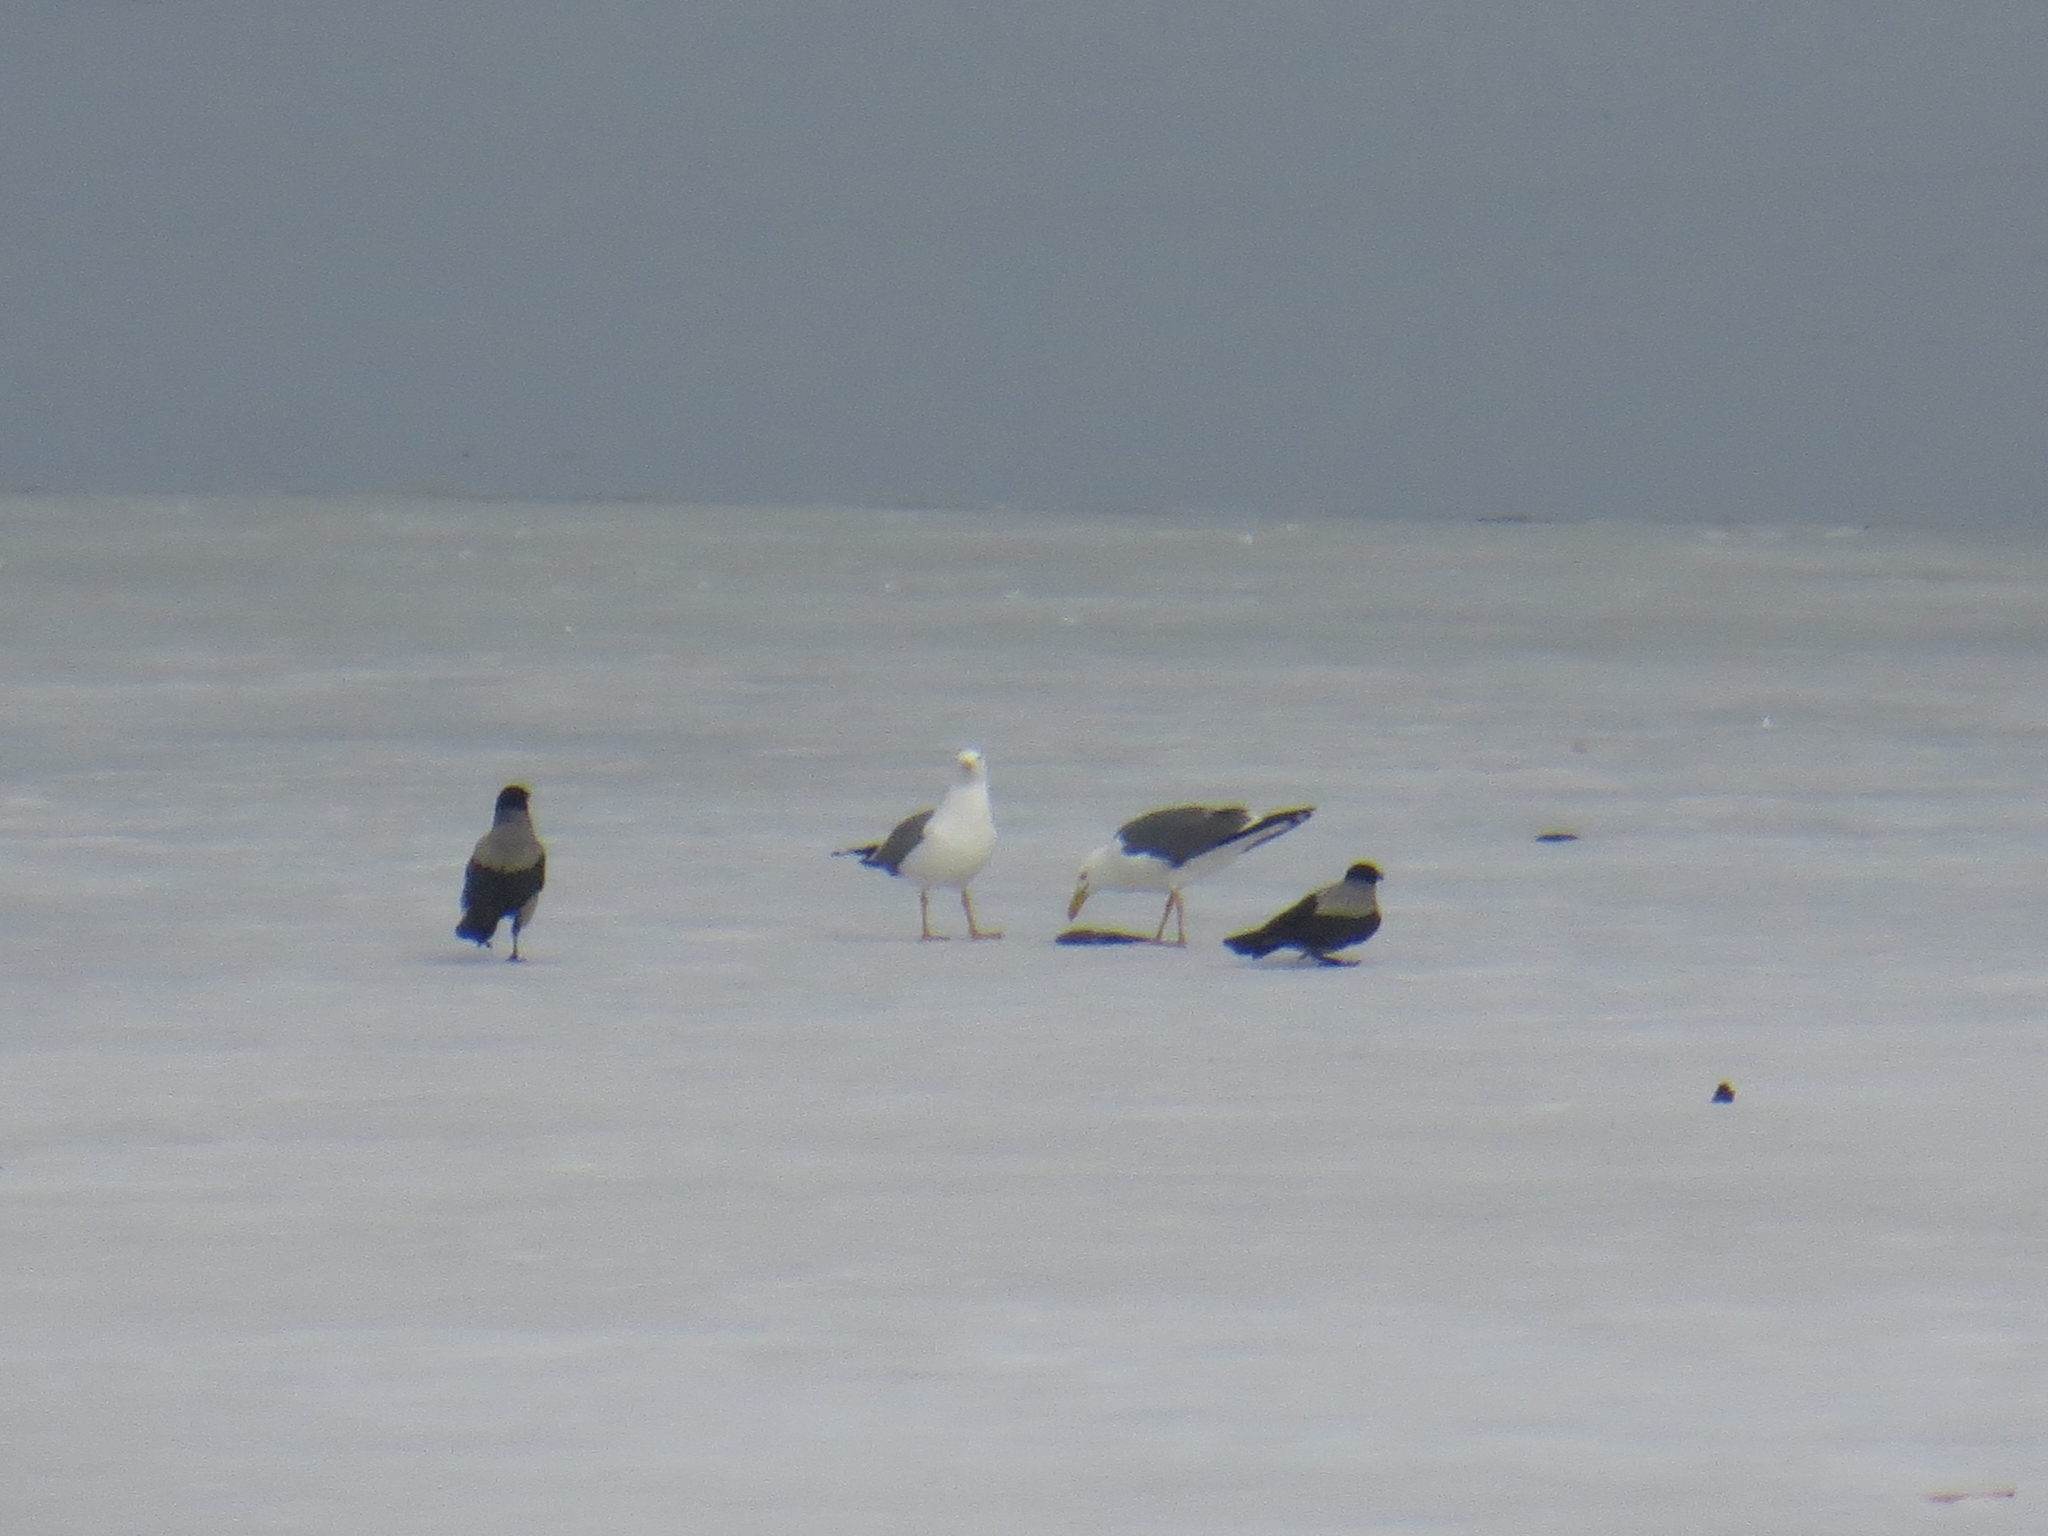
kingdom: Animalia
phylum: Chordata
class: Aves
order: Charadriiformes
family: Laridae
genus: Larus
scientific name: Larus fuscus
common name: Lesser black-backed gull
